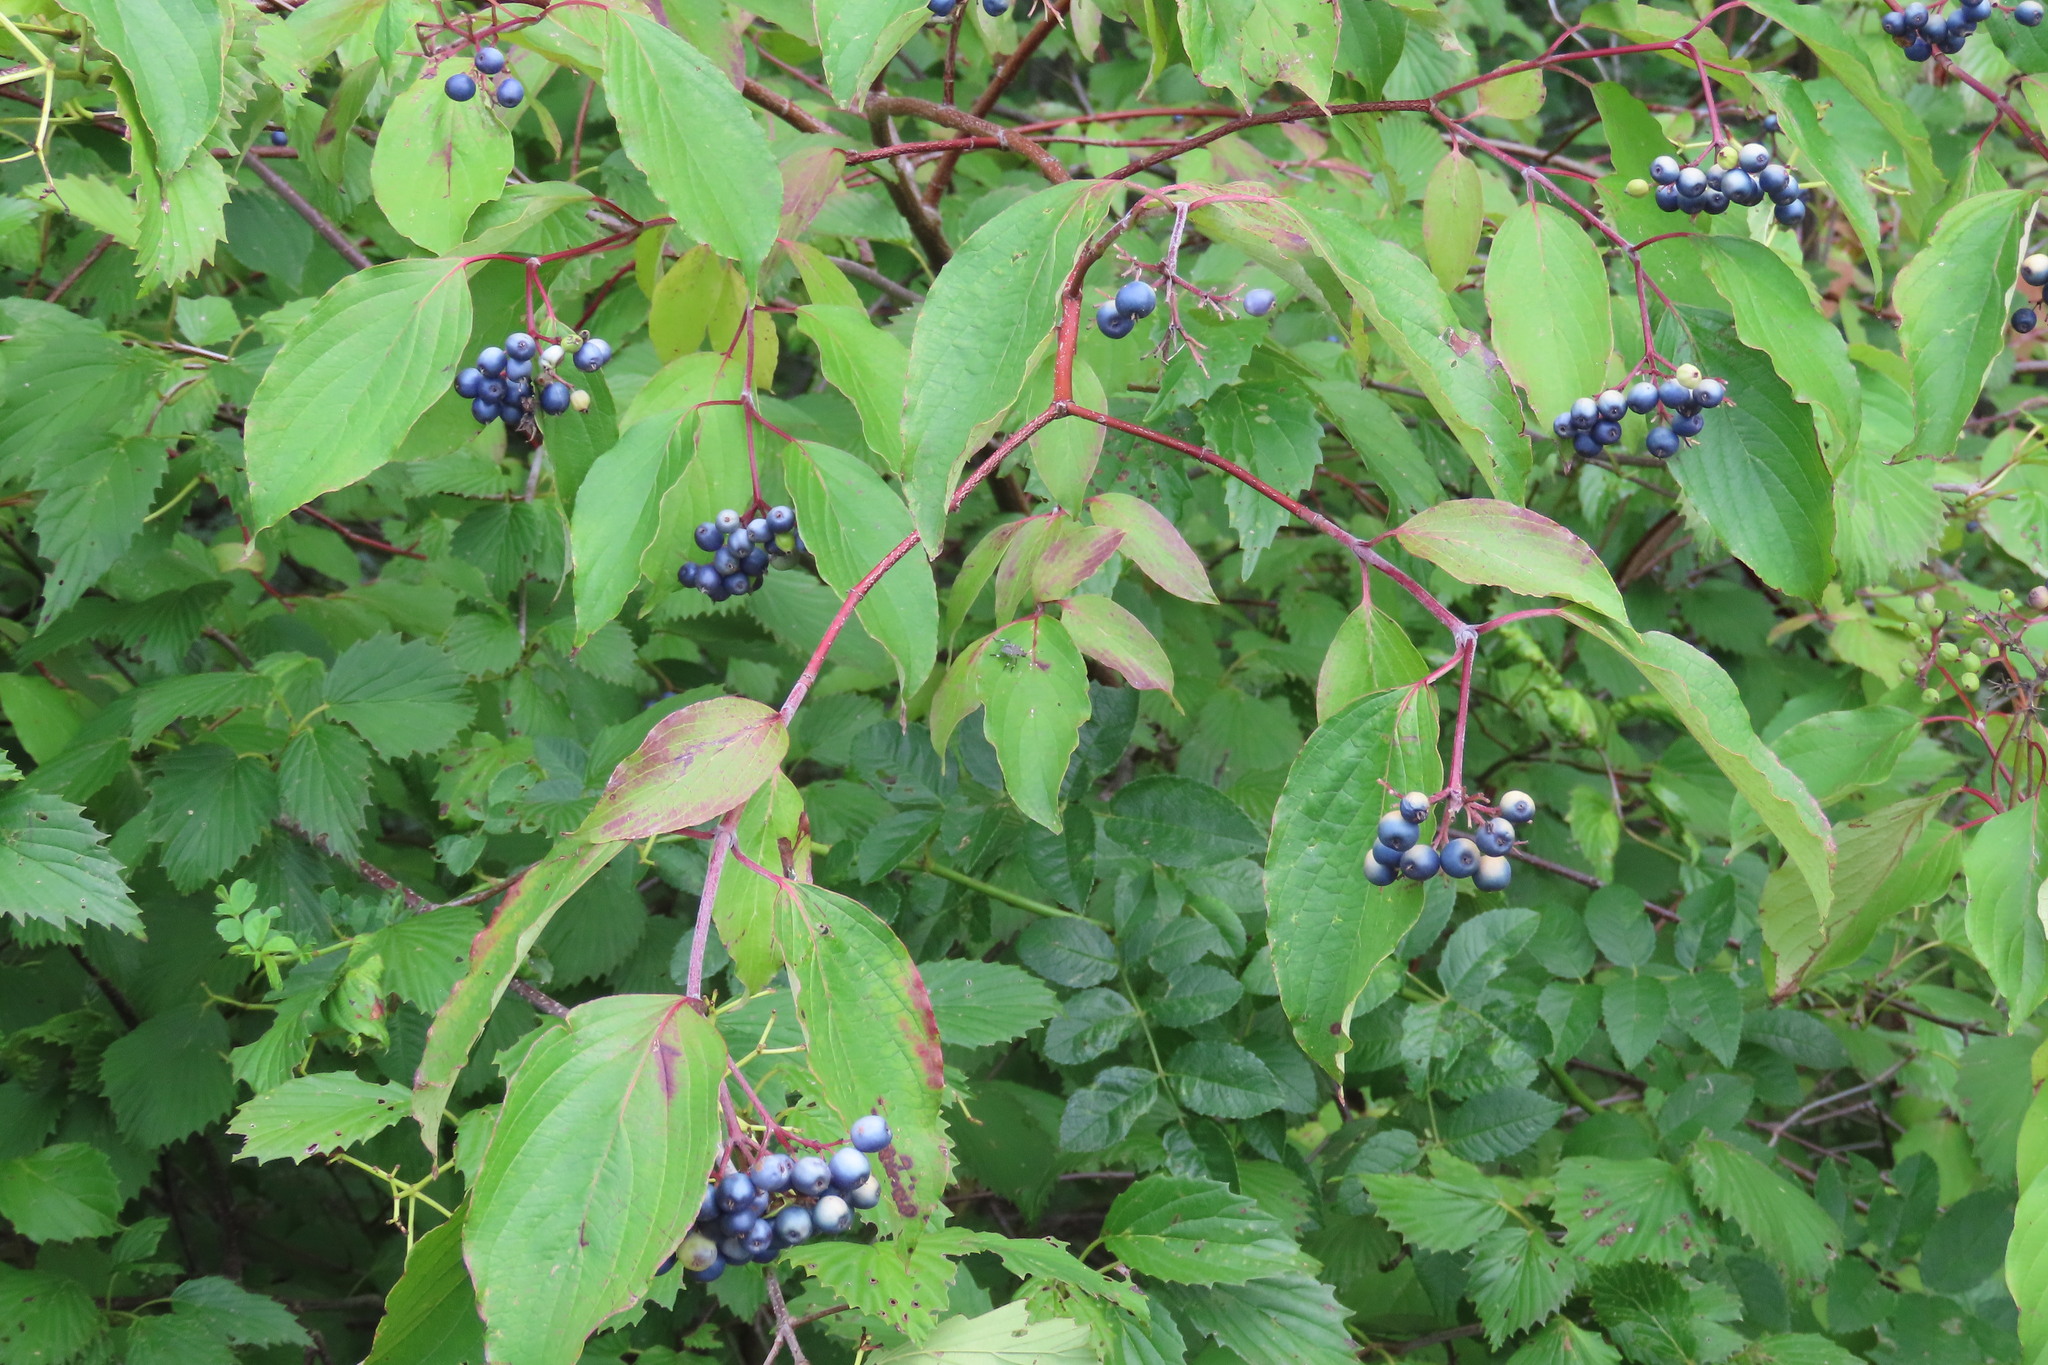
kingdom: Plantae
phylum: Tracheophyta
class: Magnoliopsida
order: Cornales
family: Cornaceae
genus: Cornus
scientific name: Cornus amomum
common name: Silky dogwood
